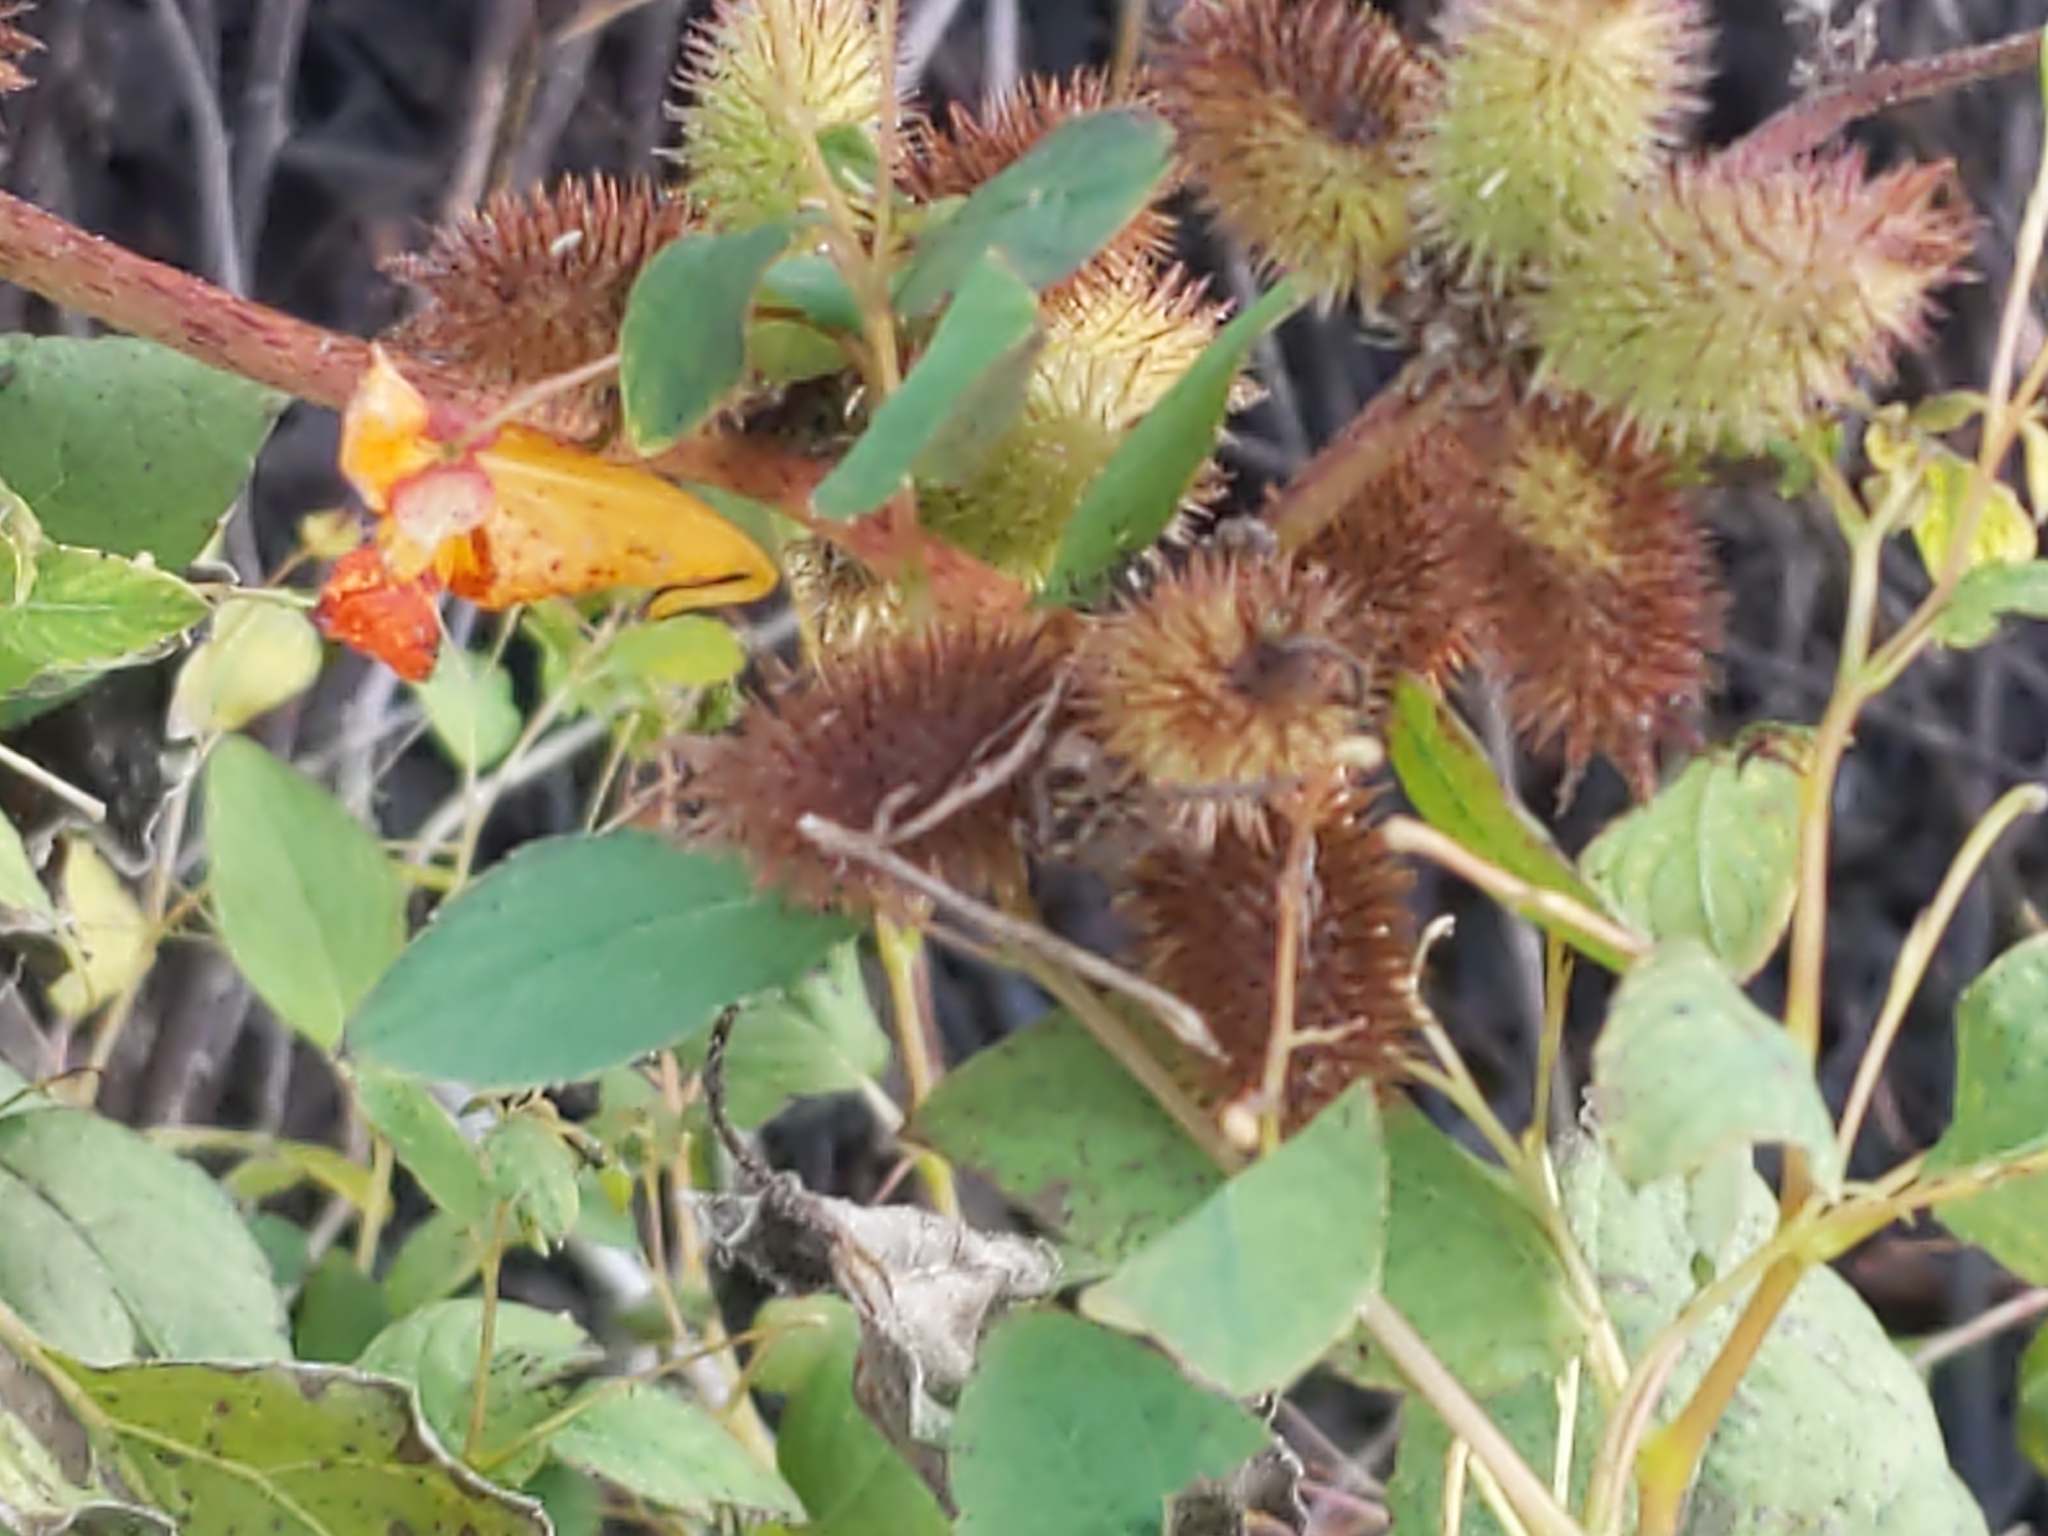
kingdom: Plantae
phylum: Tracheophyta
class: Magnoliopsida
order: Ericales
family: Balsaminaceae
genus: Impatiens
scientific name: Impatiens capensis
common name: Orange balsam
